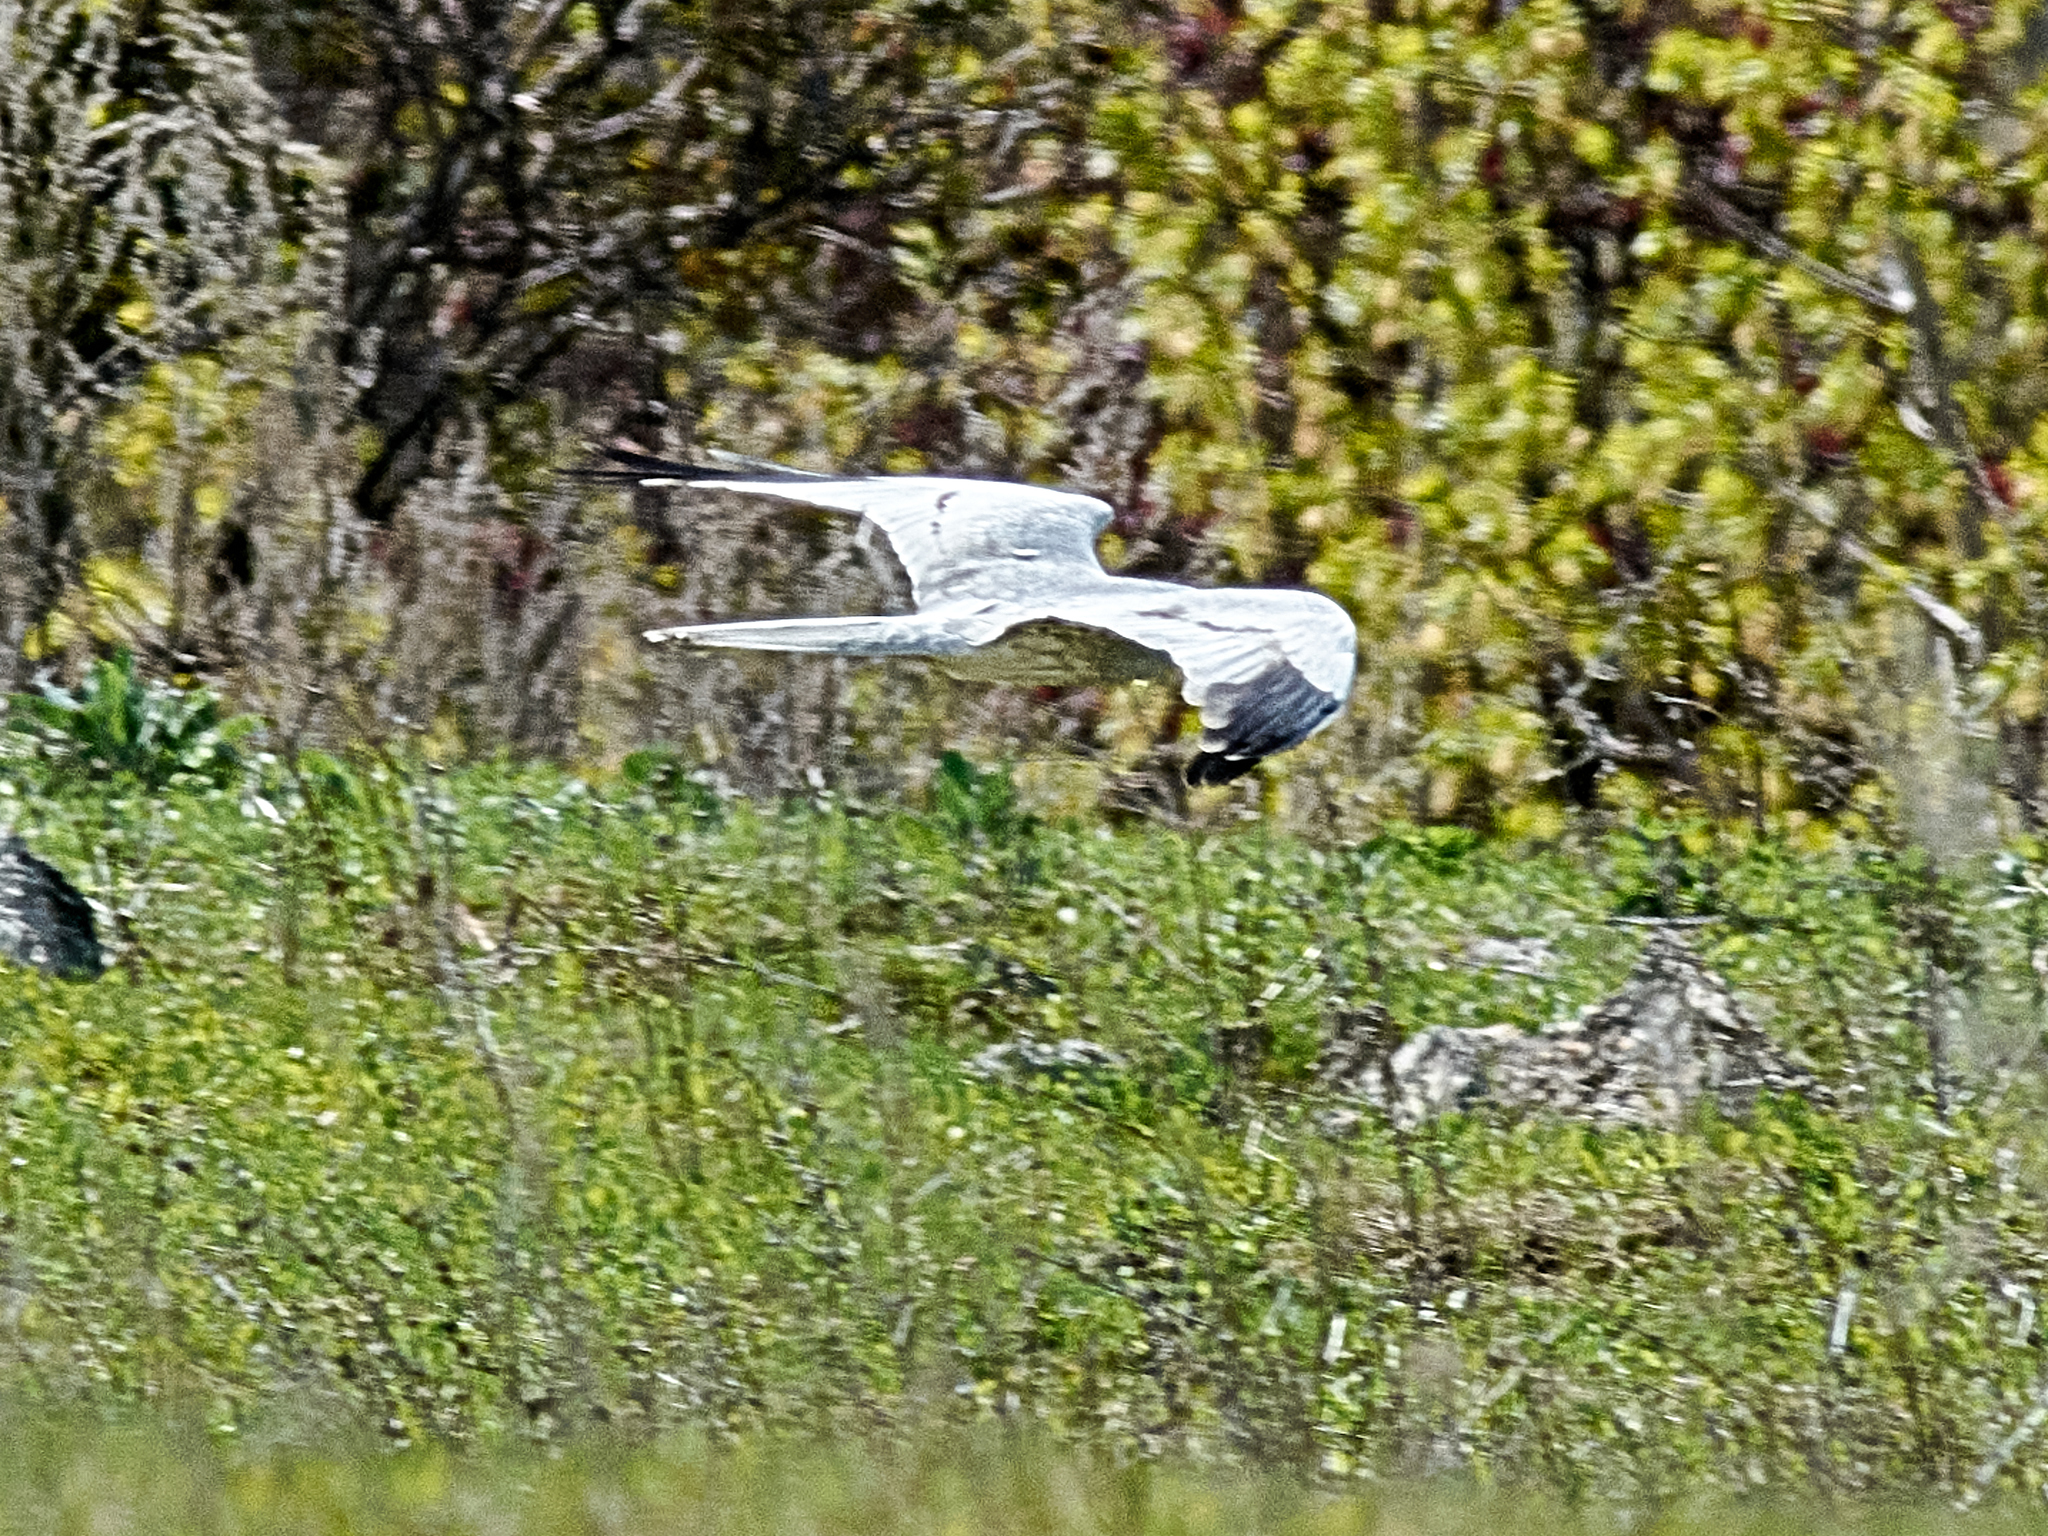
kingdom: Animalia
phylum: Chordata
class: Aves
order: Accipitriformes
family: Accipitridae
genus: Circus
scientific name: Circus pygargus
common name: Montagu's harrier
